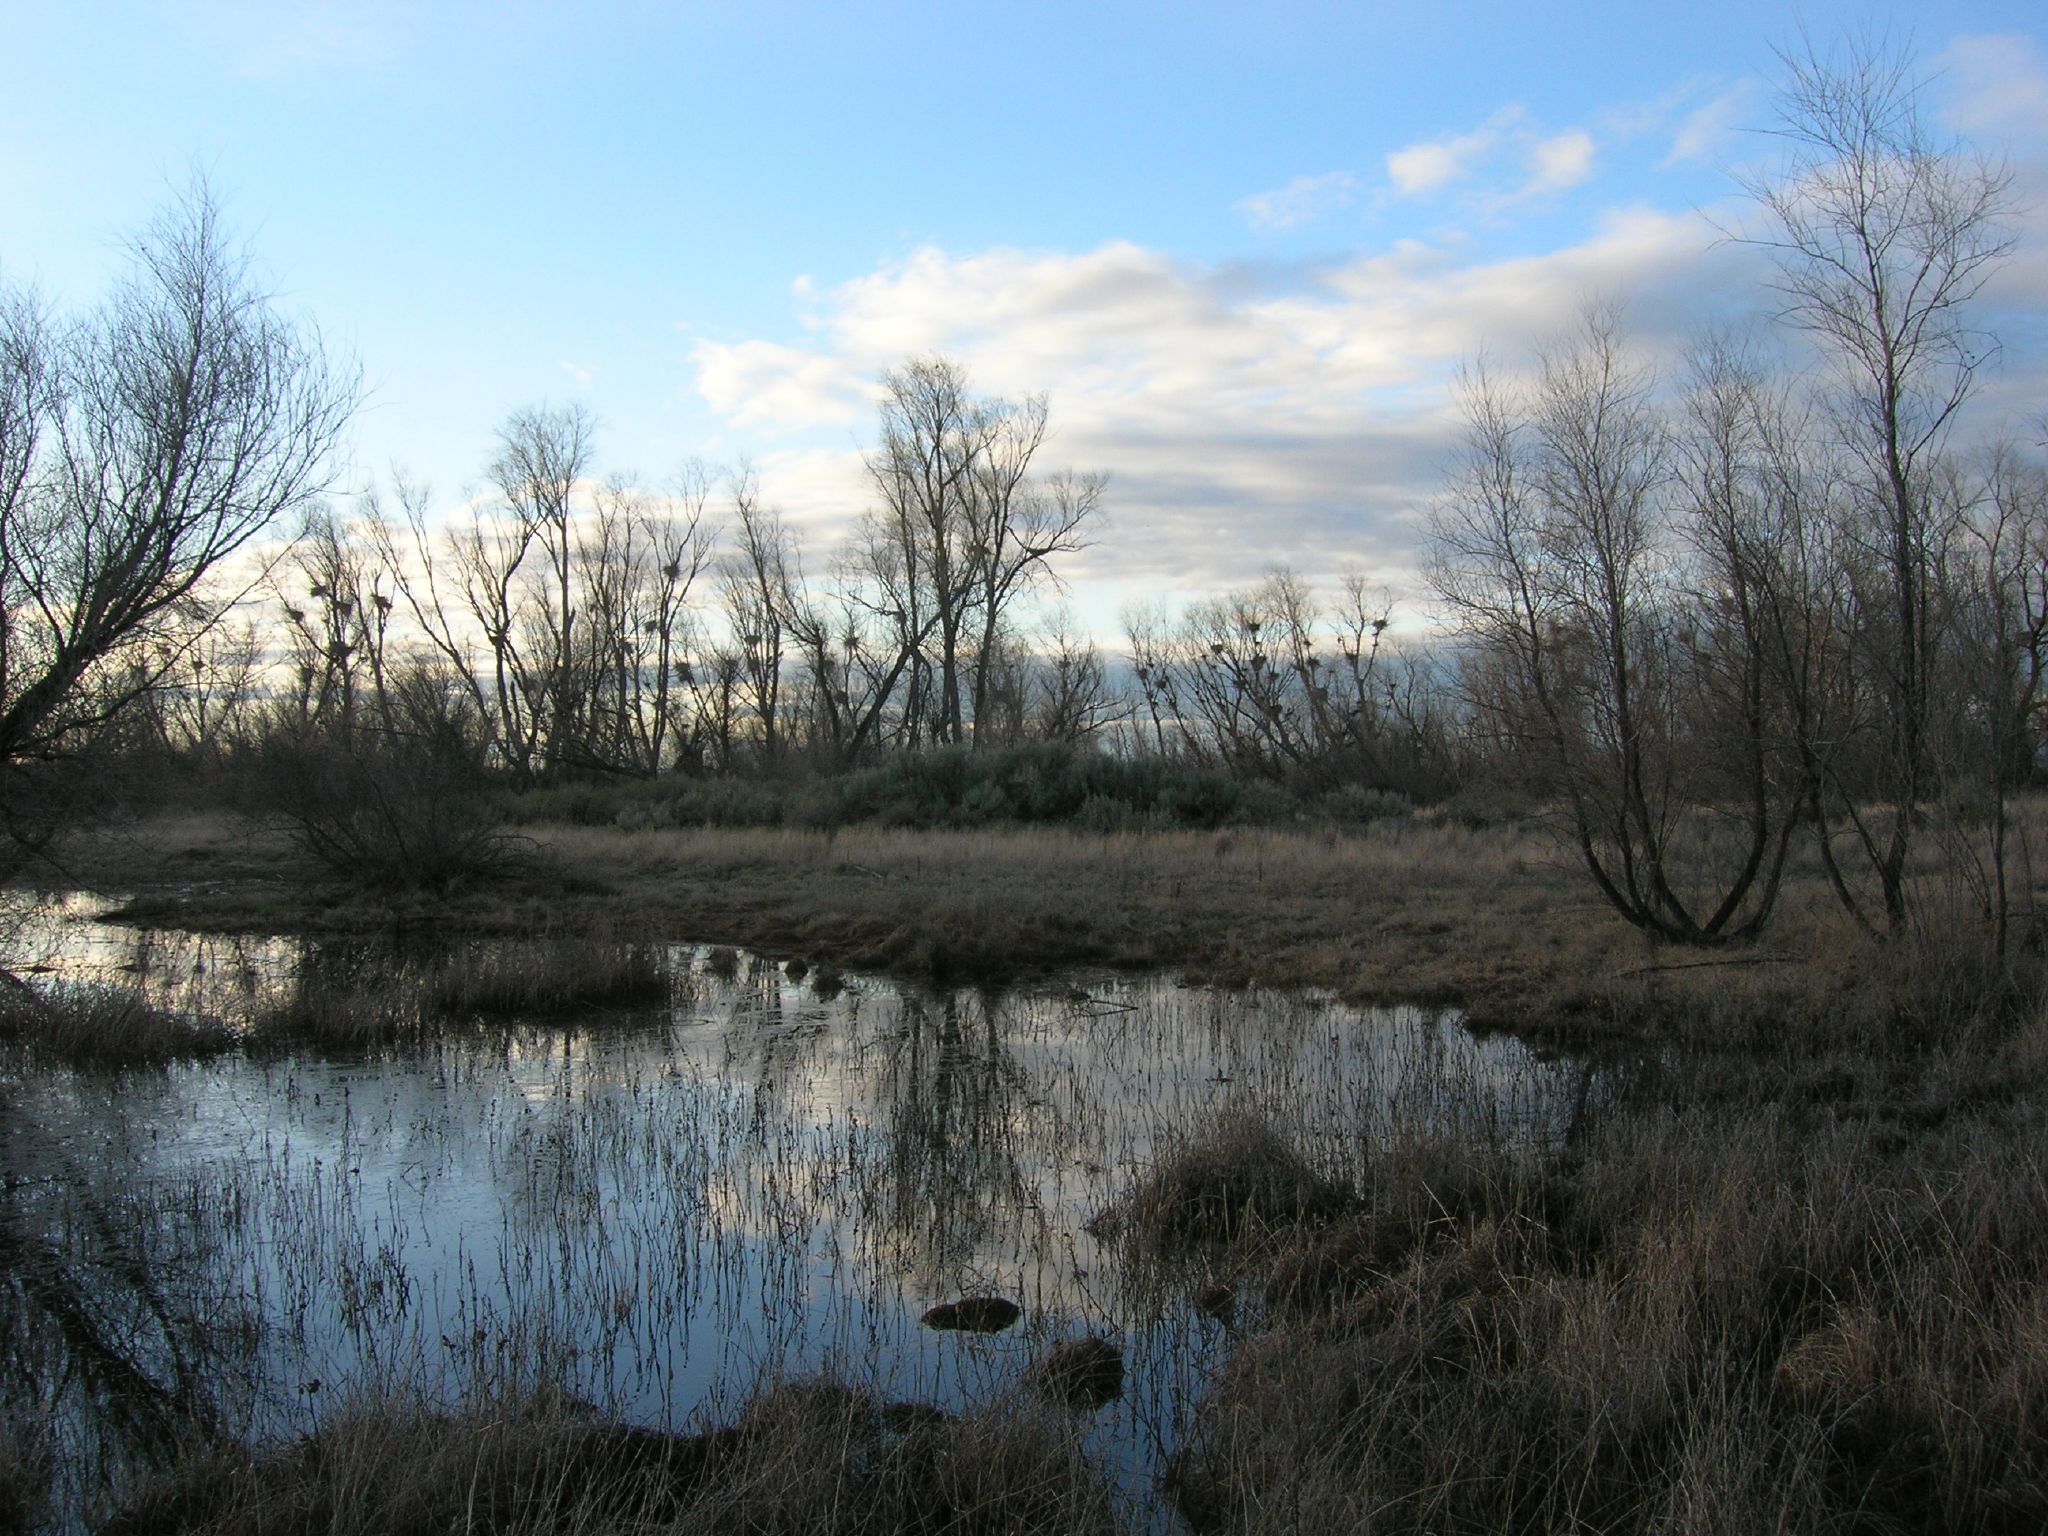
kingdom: Animalia
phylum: Chordata
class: Aves
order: Pelecaniformes
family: Ardeidae
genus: Nycticorax
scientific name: Nycticorax nycticorax
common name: Black-crowned night heron
